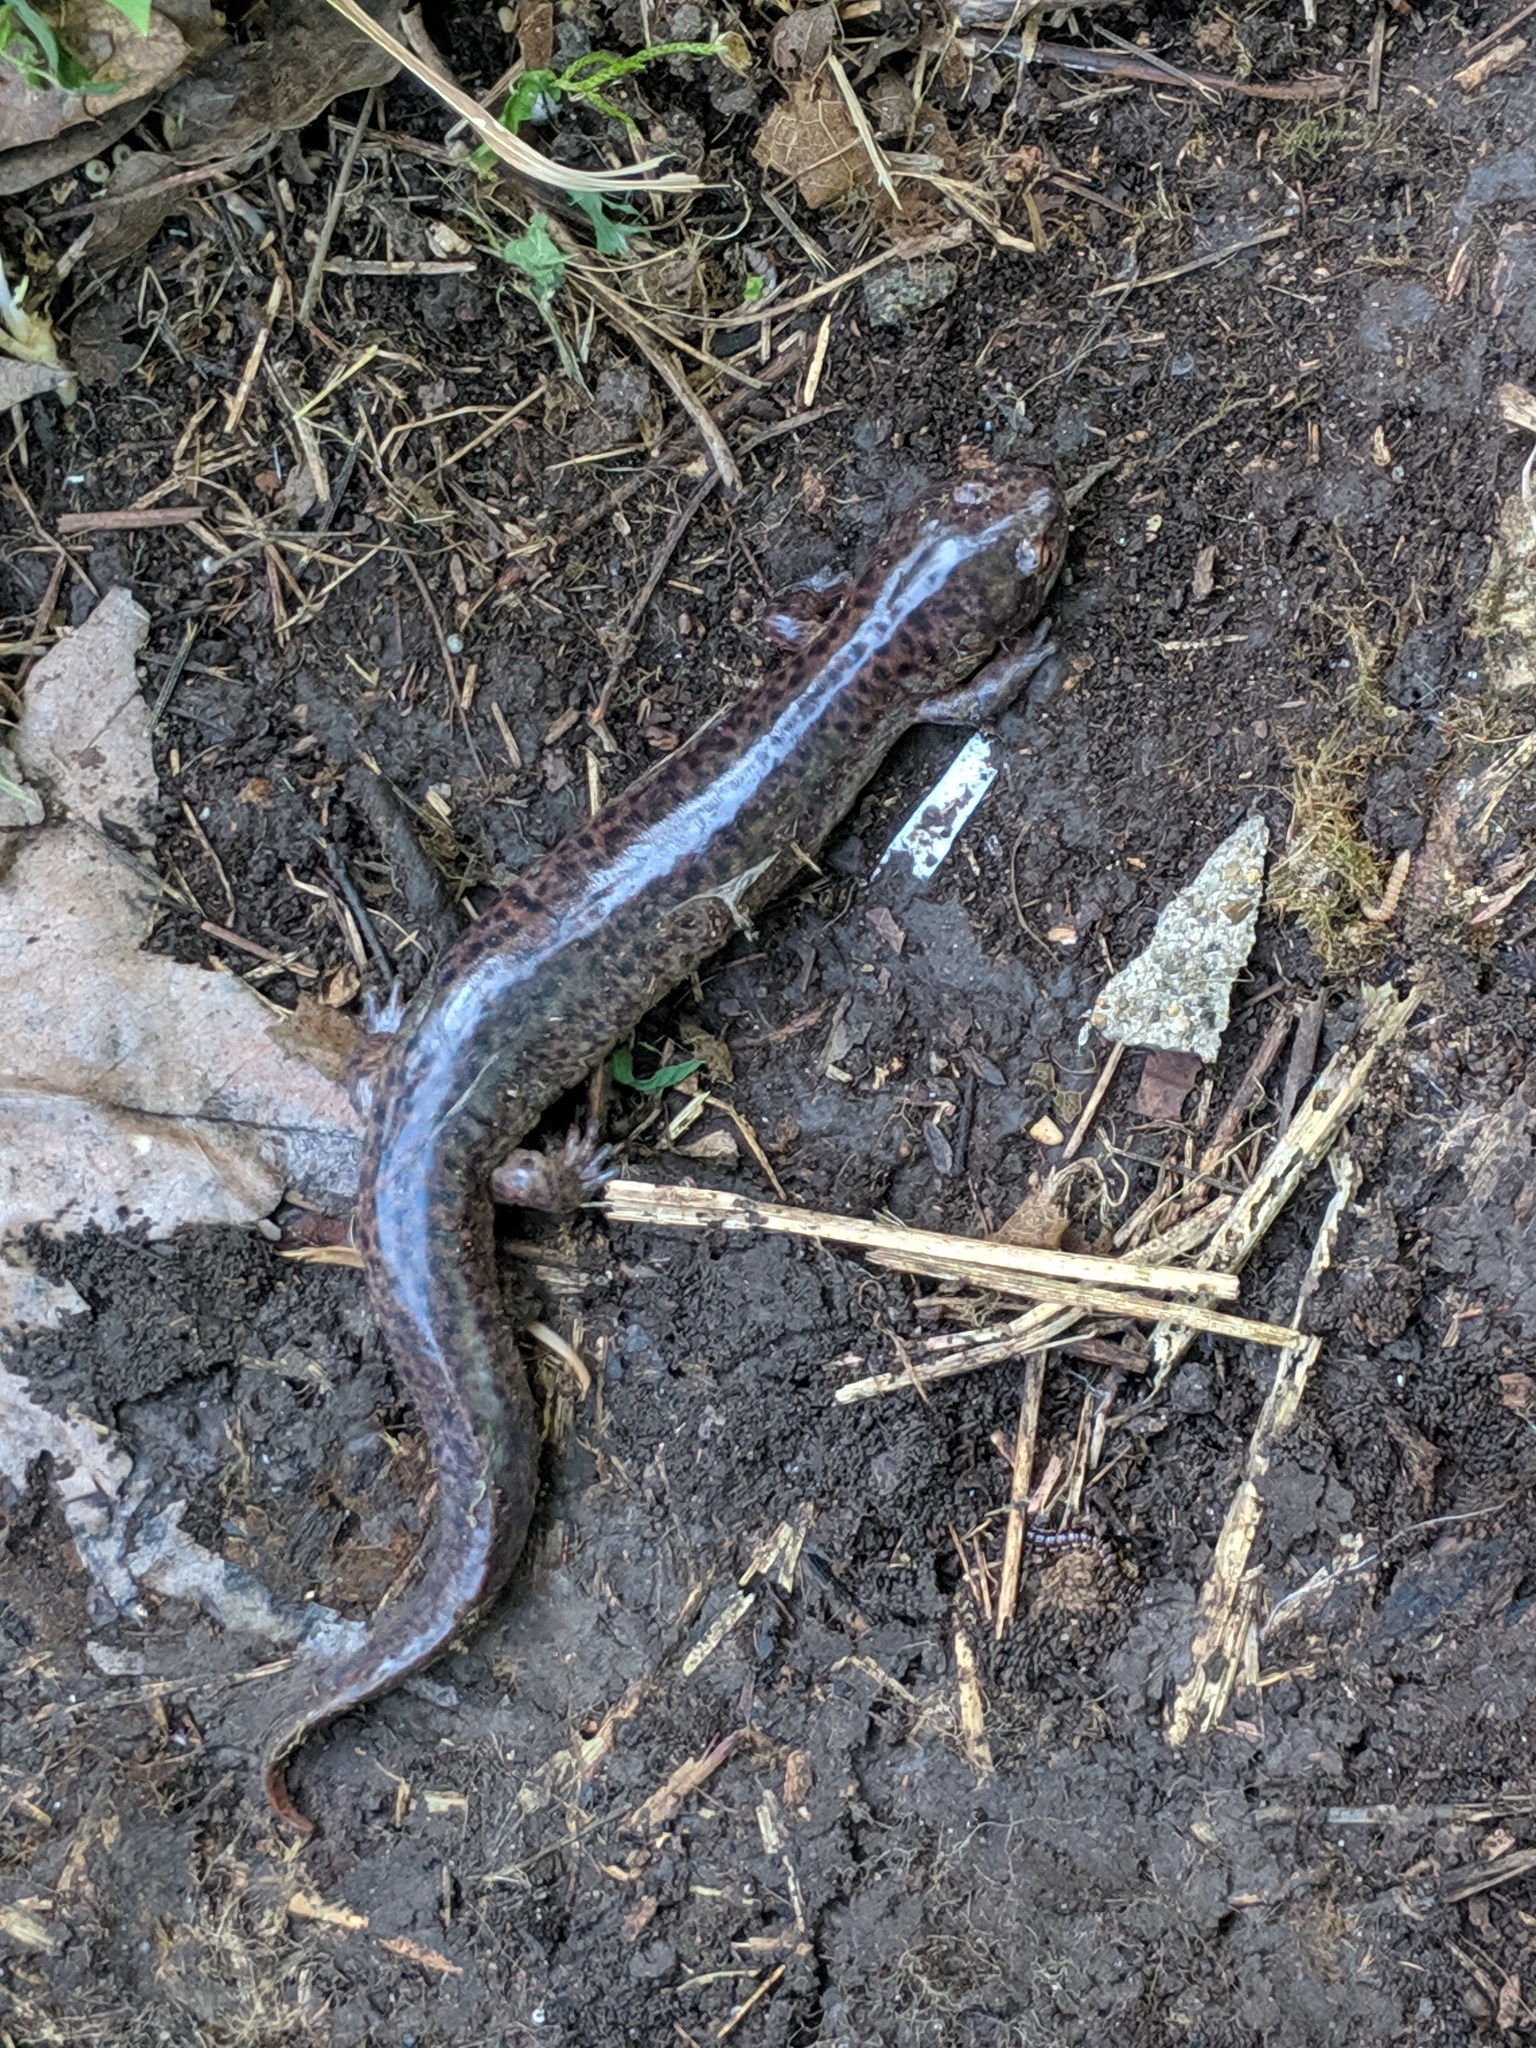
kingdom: Animalia
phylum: Chordata
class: Amphibia
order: Caudata
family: Plethodontidae
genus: Pseudotriton
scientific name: Pseudotriton ruber
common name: Red salamander
